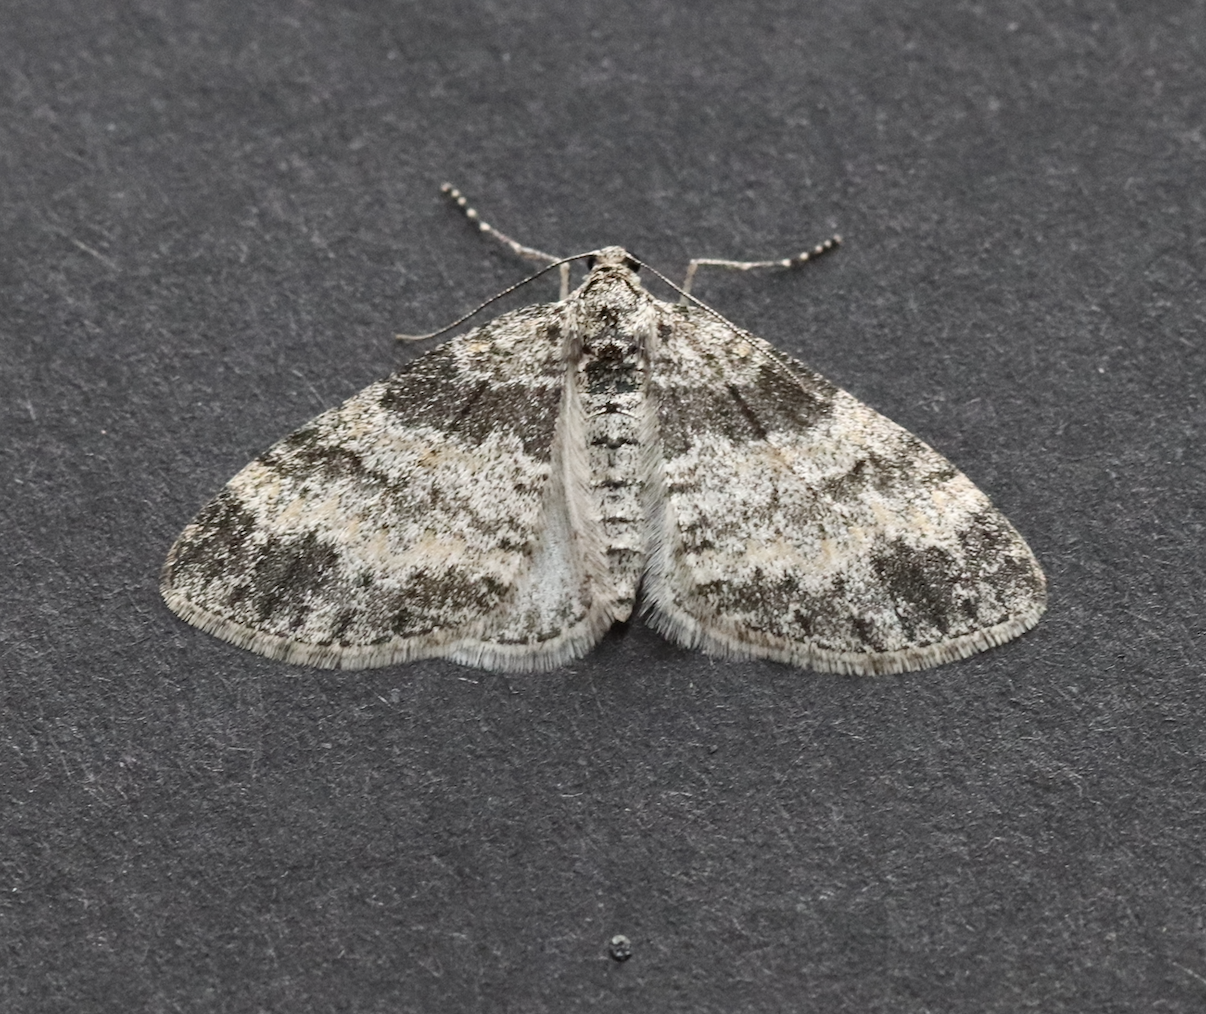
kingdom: Animalia
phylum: Arthropoda
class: Insecta
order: Lepidoptera
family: Geometridae
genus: Lobophora
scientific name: Lobophora halterata
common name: Seraphim
